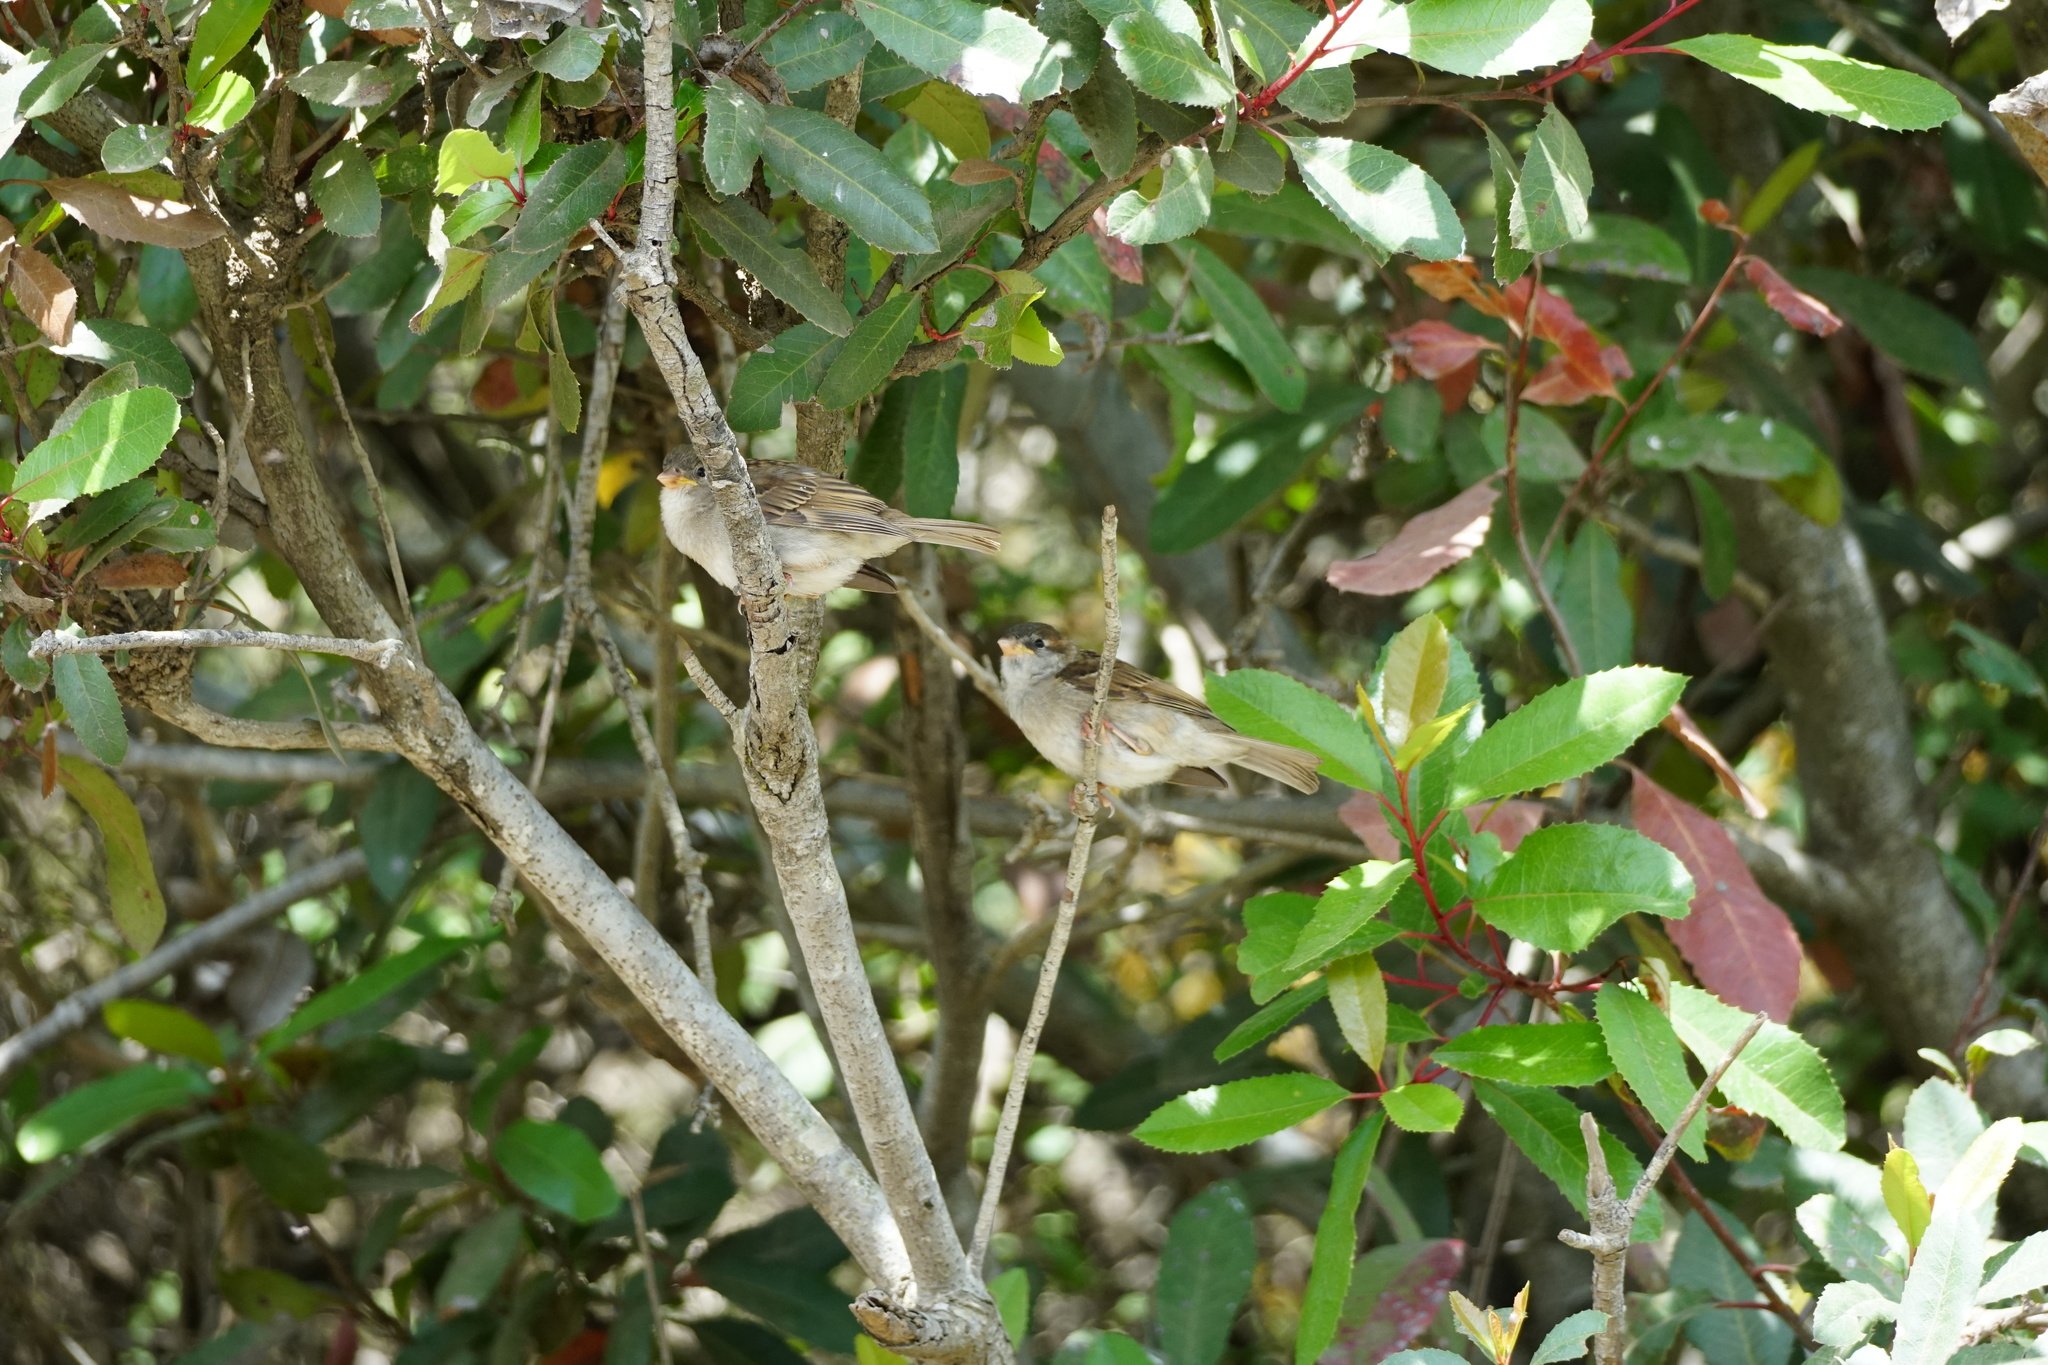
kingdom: Animalia
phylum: Chordata
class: Aves
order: Passeriformes
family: Passeridae
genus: Passer
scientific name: Passer domesticus
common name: House sparrow
